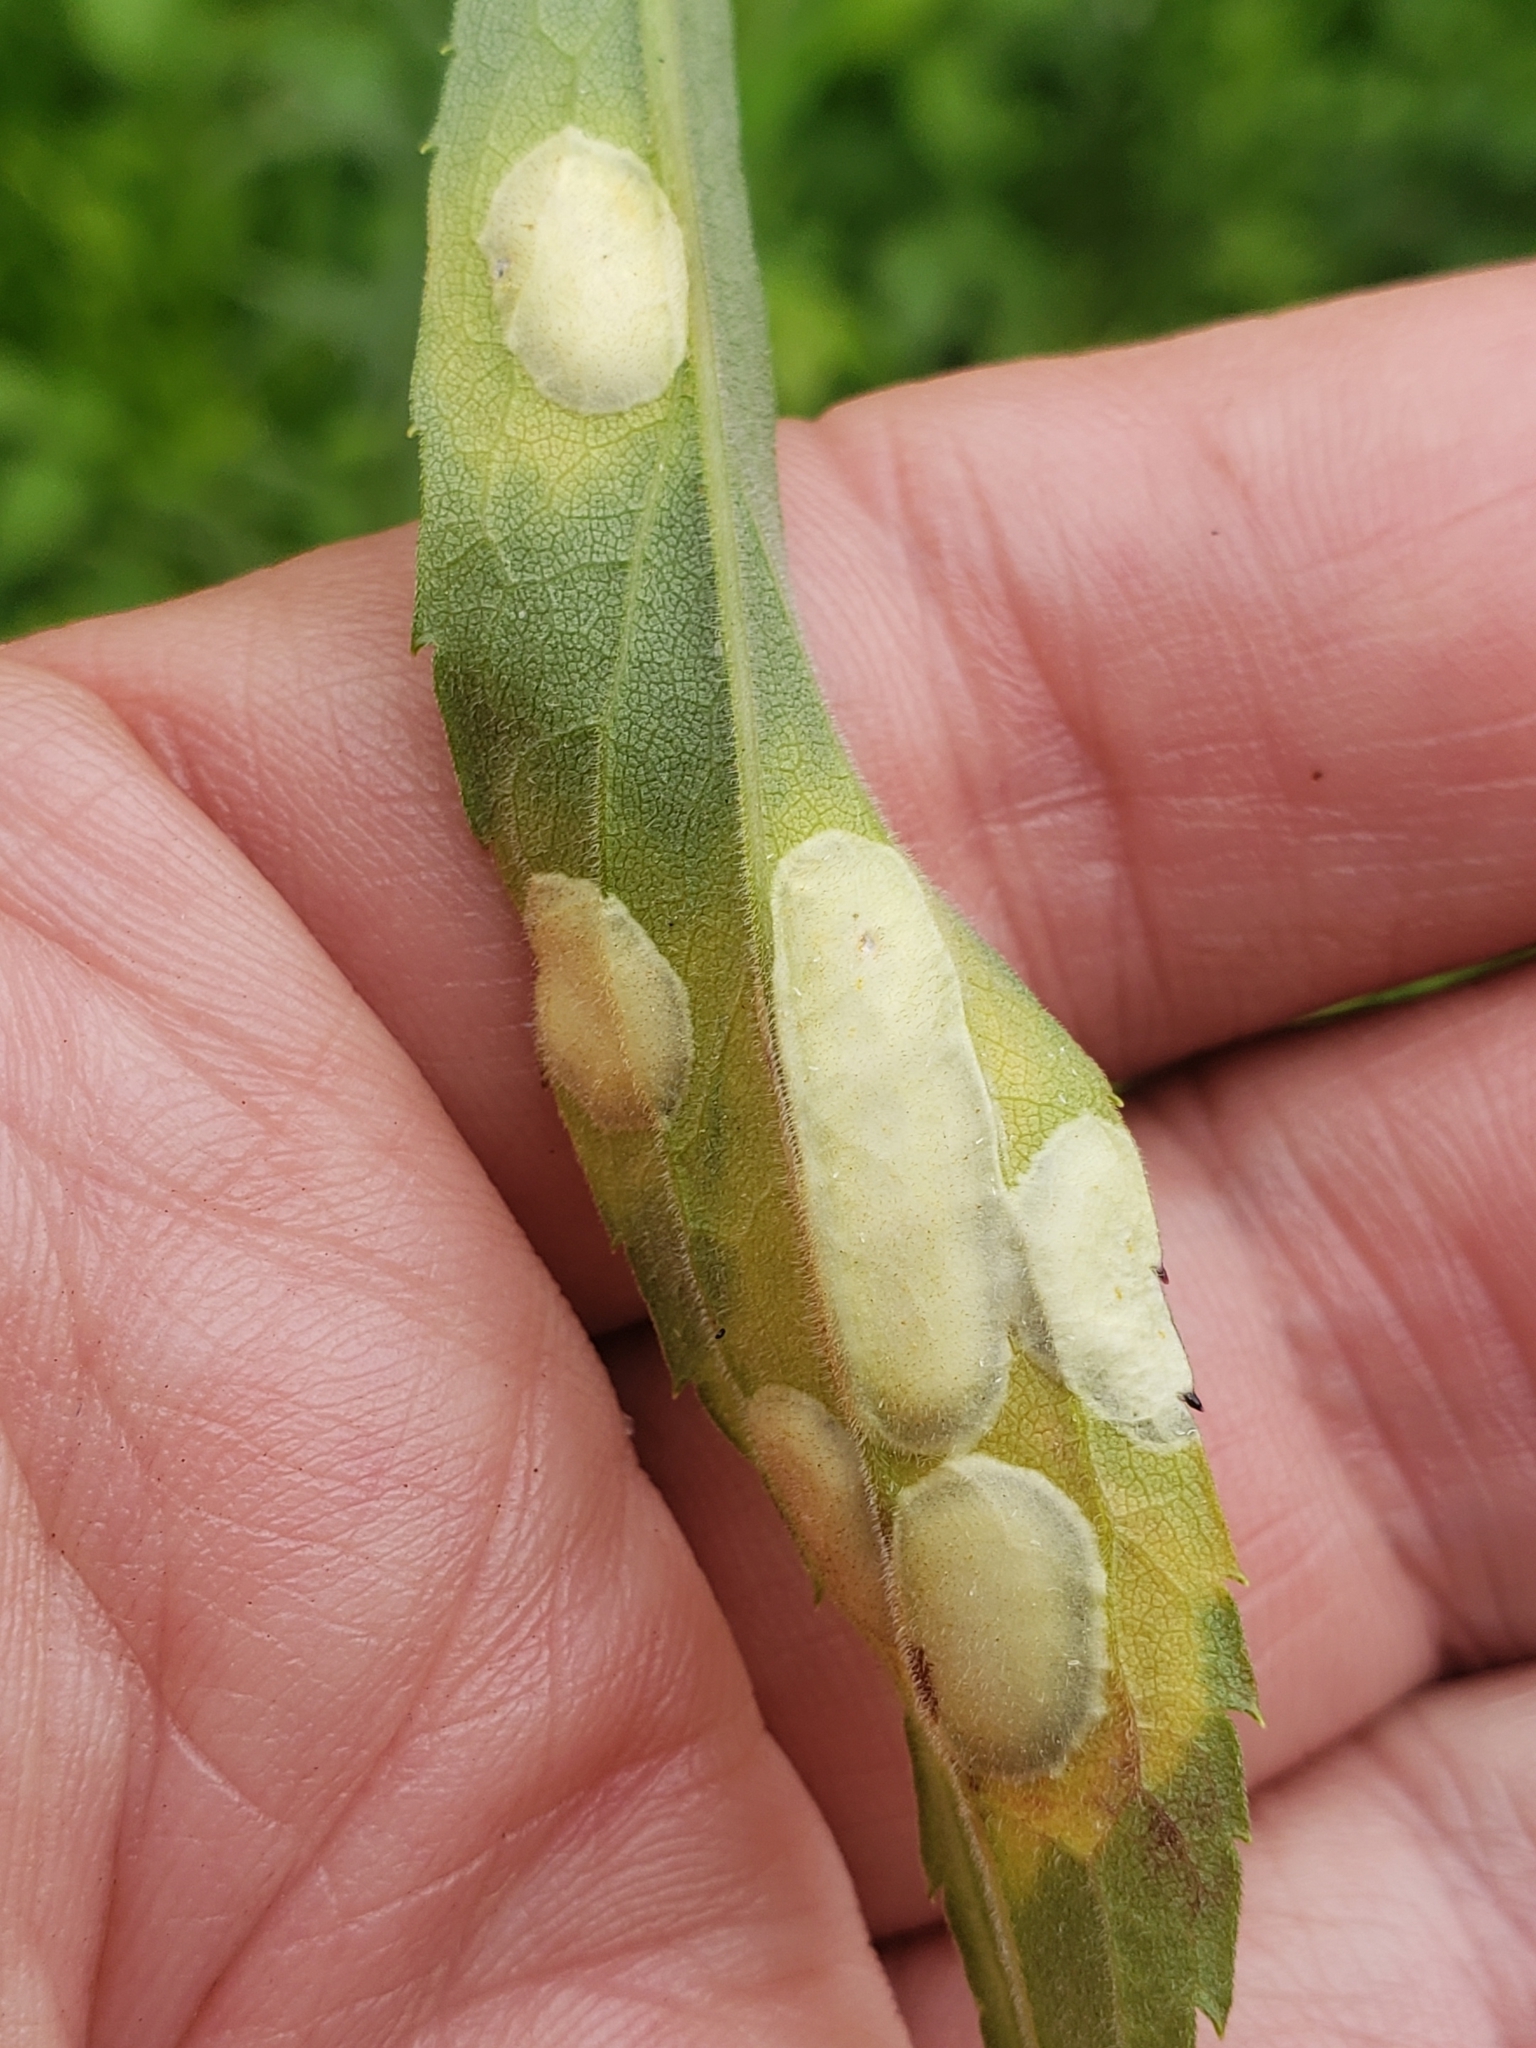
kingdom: Animalia
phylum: Arthropoda
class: Insecta
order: Diptera
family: Cecidomyiidae
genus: Asteromyia
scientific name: Asteromyia carbonifera
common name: Carbonifera goldenrod gall midge
